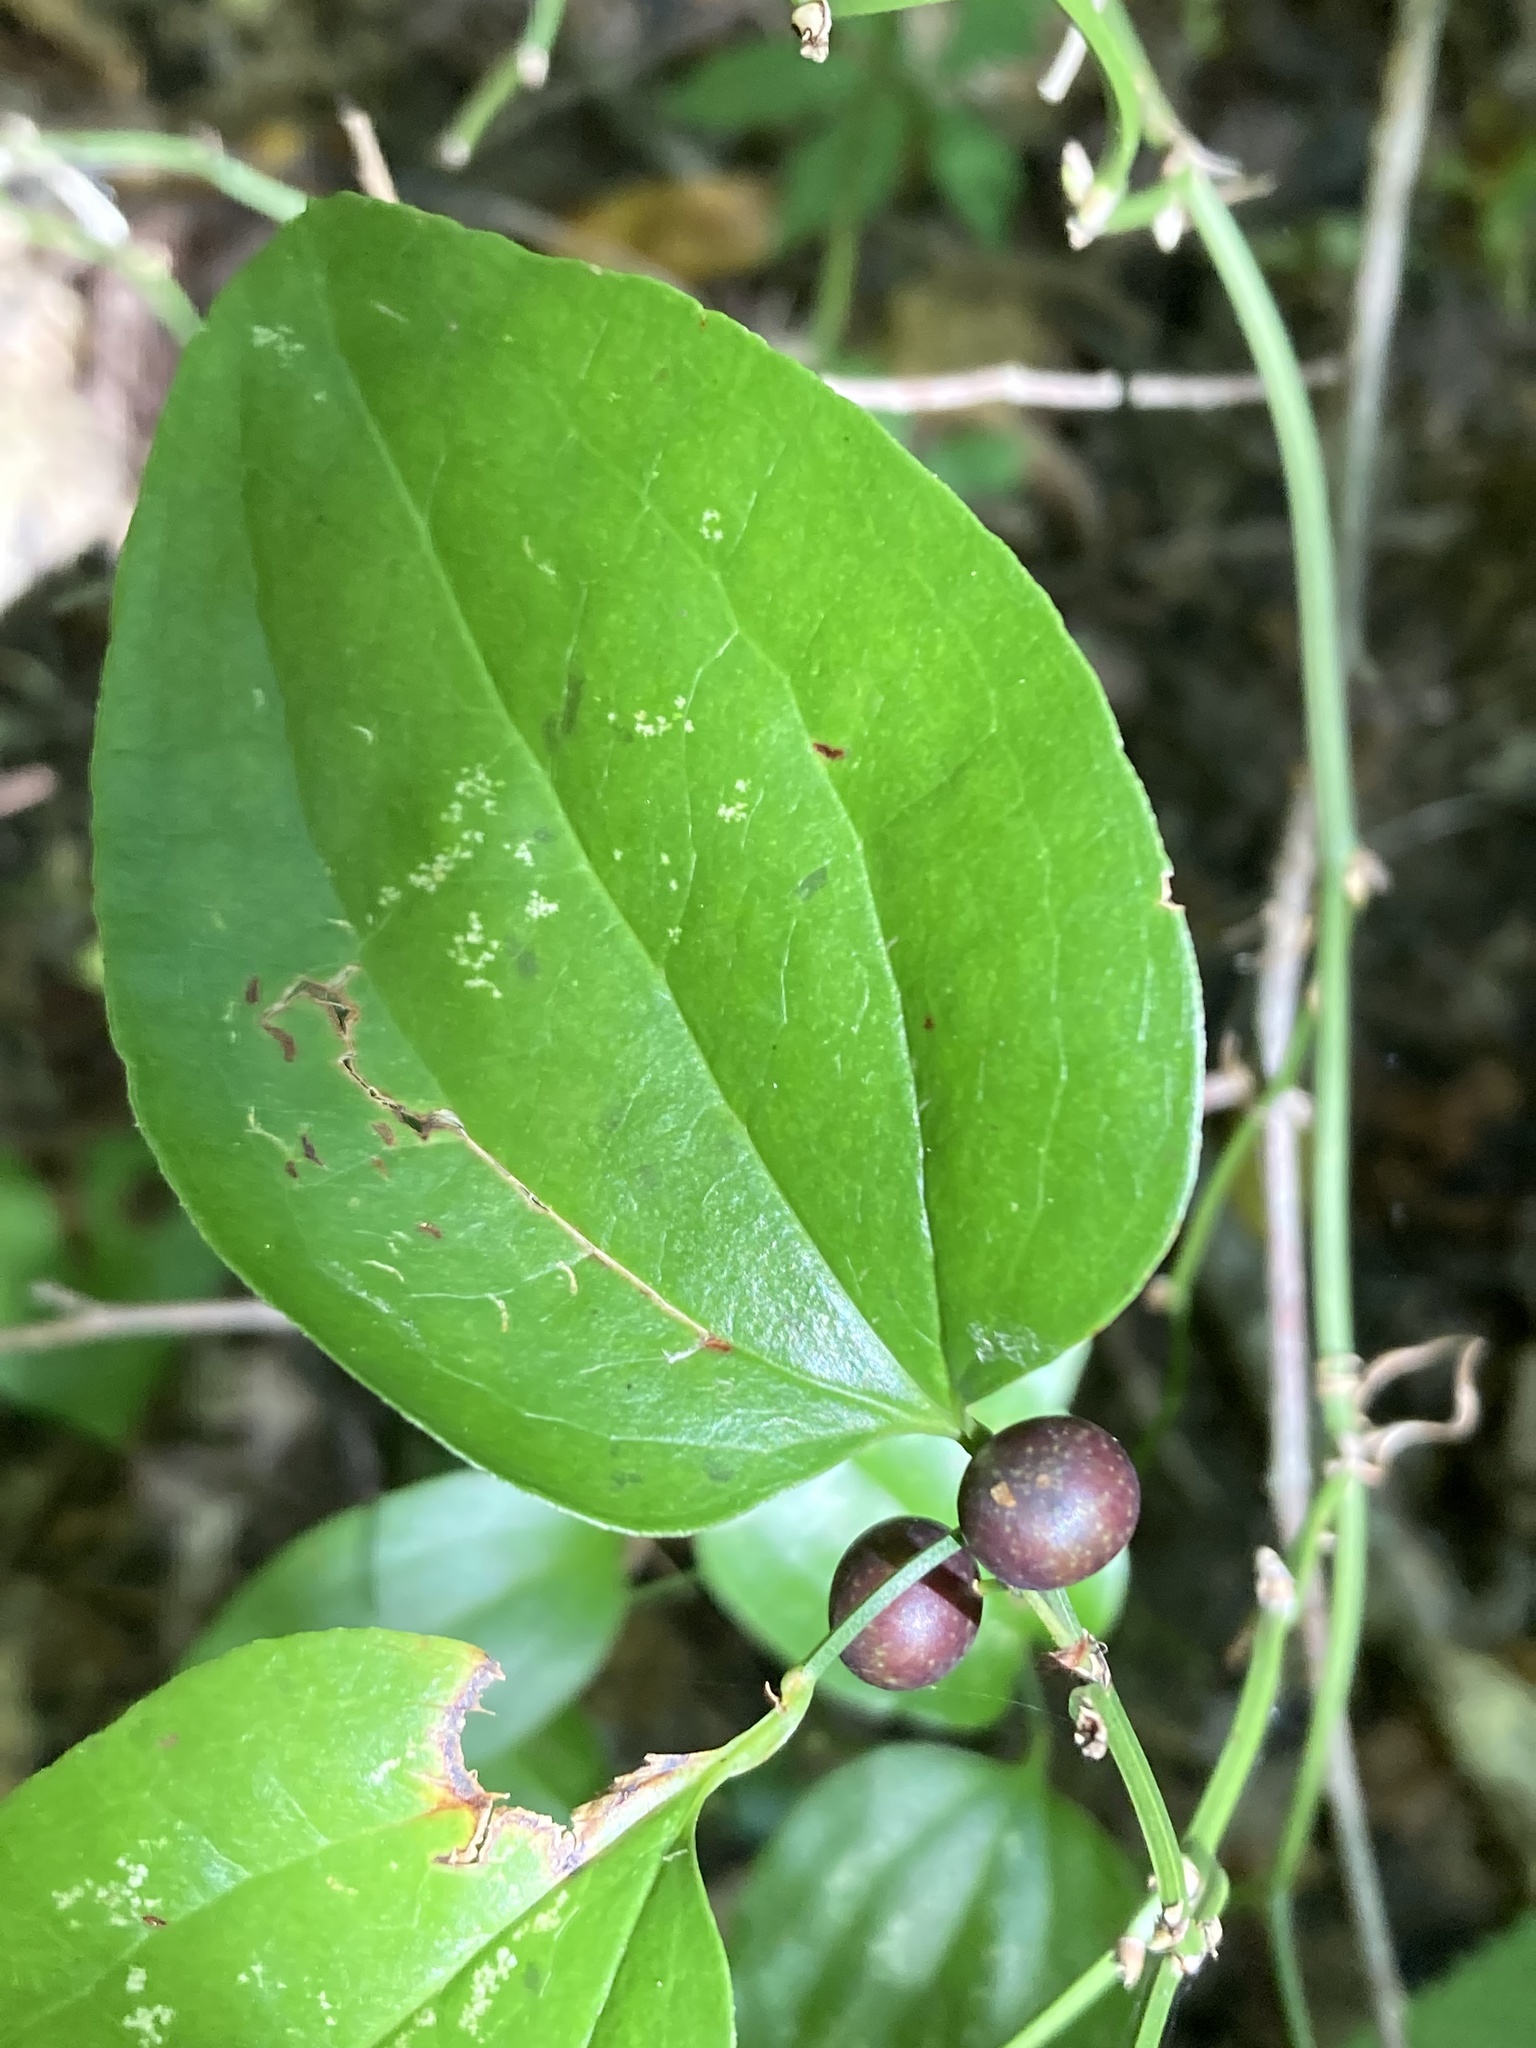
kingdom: Plantae
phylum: Tracheophyta
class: Liliopsida
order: Liliales
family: Smilacaceae
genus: Smilax
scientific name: Smilax rotundifolia
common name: Bullbriar
